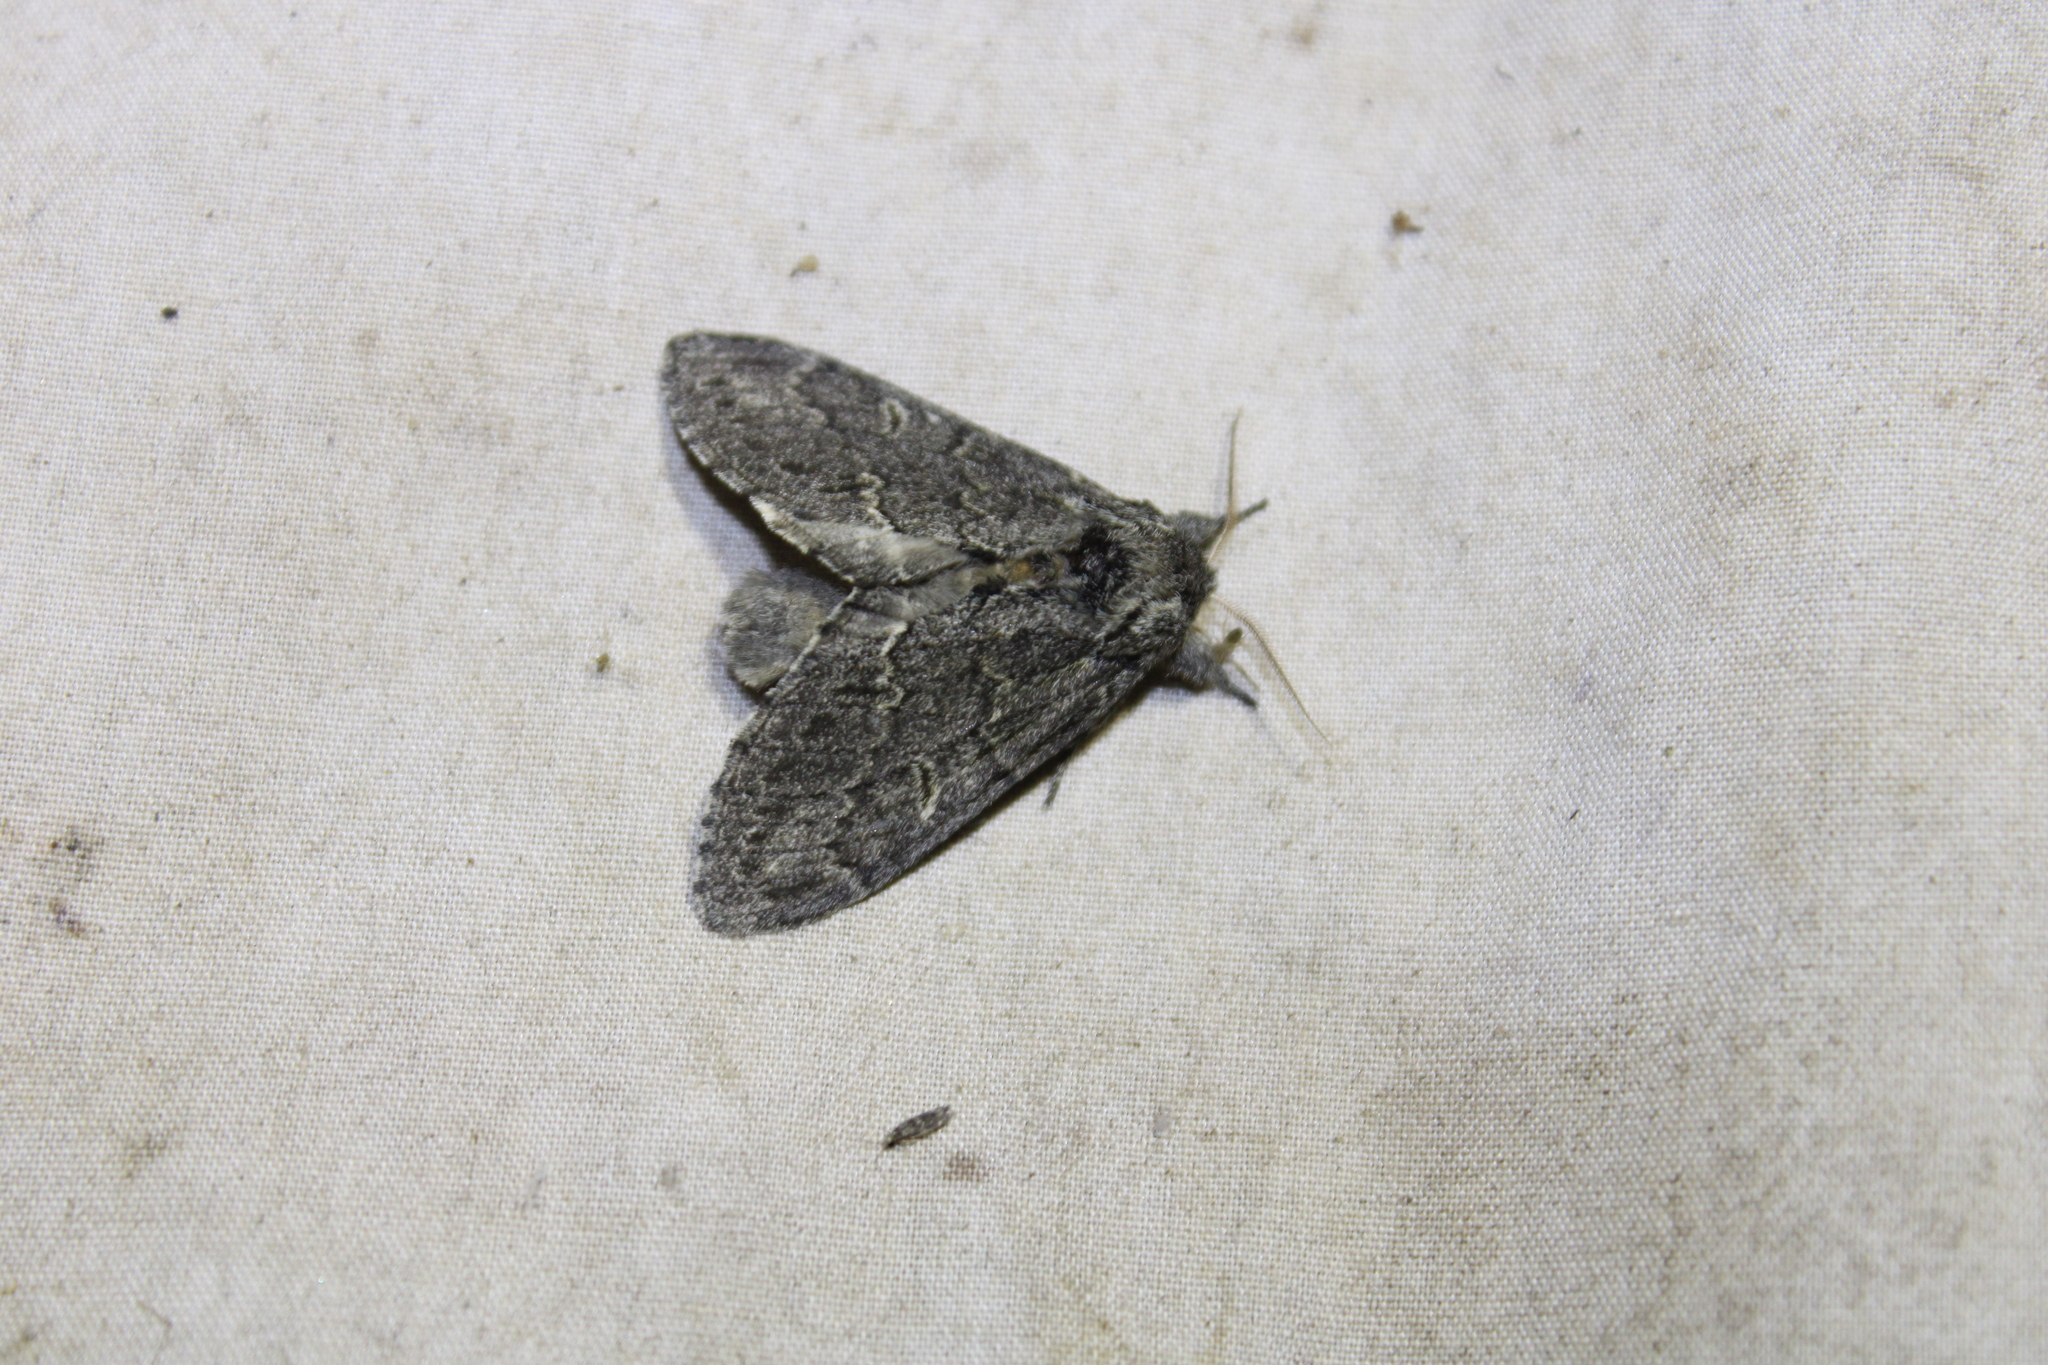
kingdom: Animalia
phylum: Arthropoda
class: Insecta
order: Lepidoptera
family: Notodontidae
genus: Notodonta
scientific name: Notodonta torva
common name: Large dark prominent
